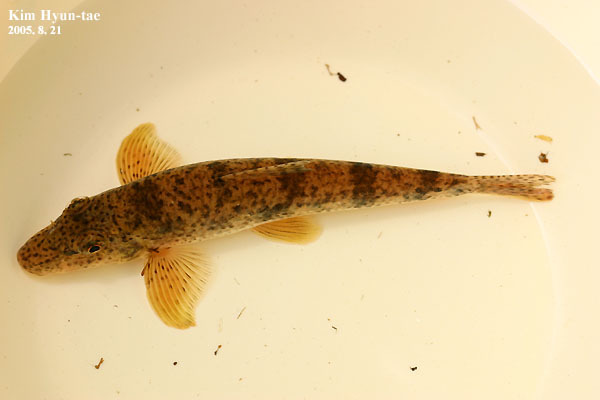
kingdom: Animalia
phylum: Chordata
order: Cypriniformes
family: Cyprinidae
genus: Pseudogobio
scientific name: Pseudogobio esocinus
